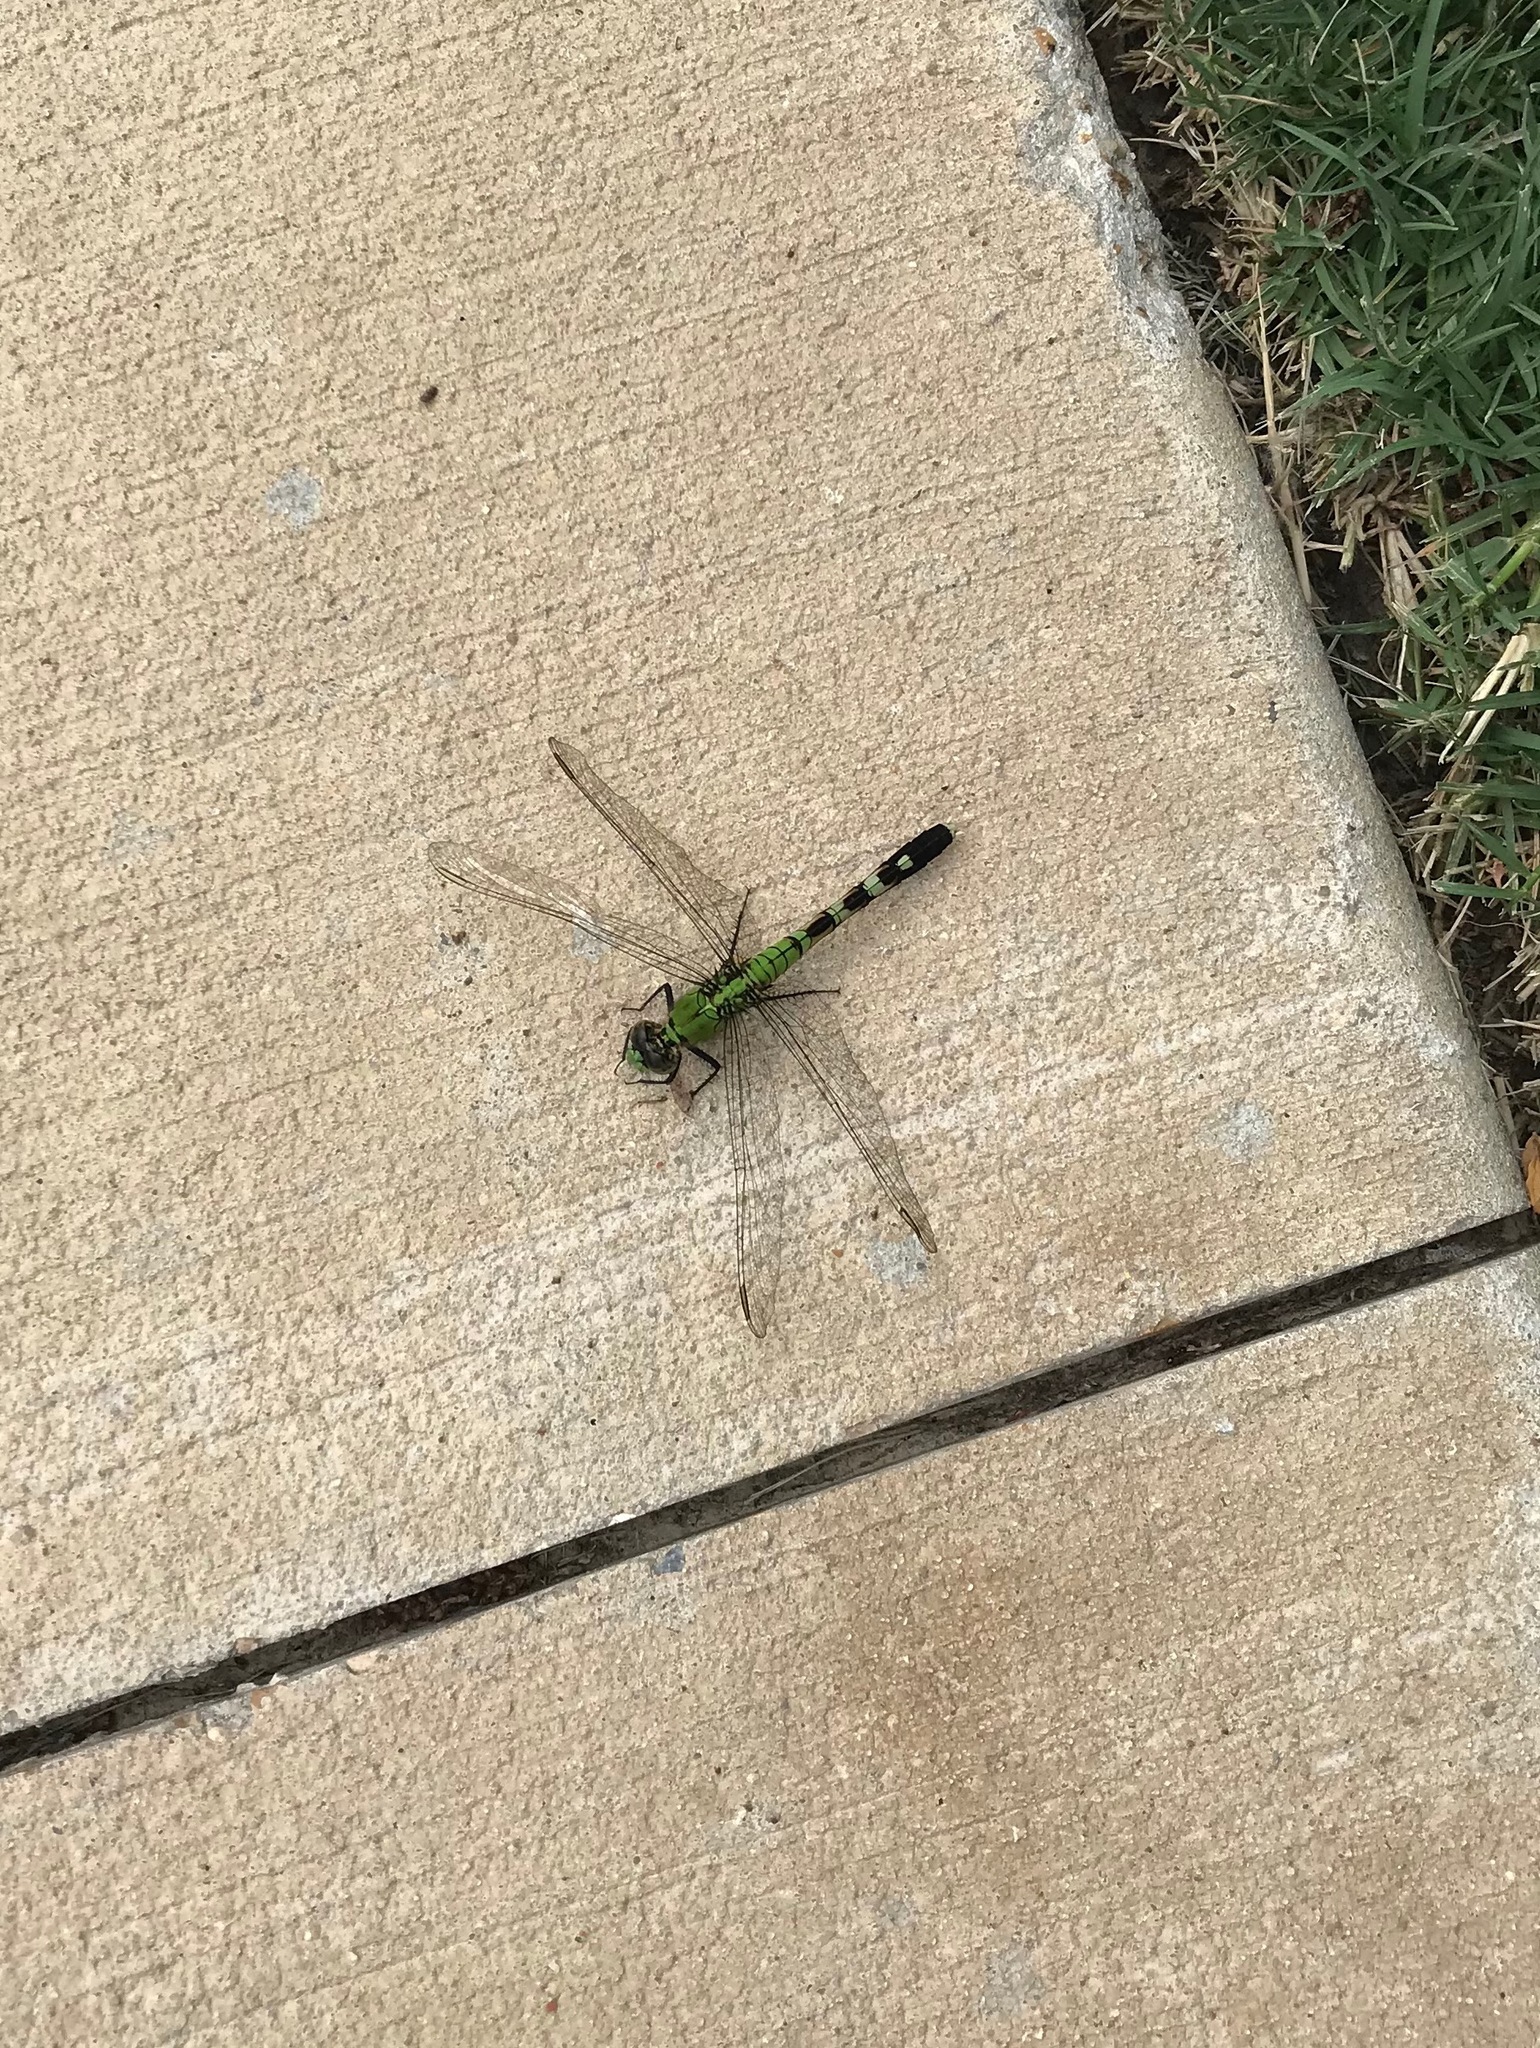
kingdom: Animalia
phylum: Arthropoda
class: Insecta
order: Odonata
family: Libellulidae
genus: Erythemis
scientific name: Erythemis simplicicollis
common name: Eastern pondhawk
